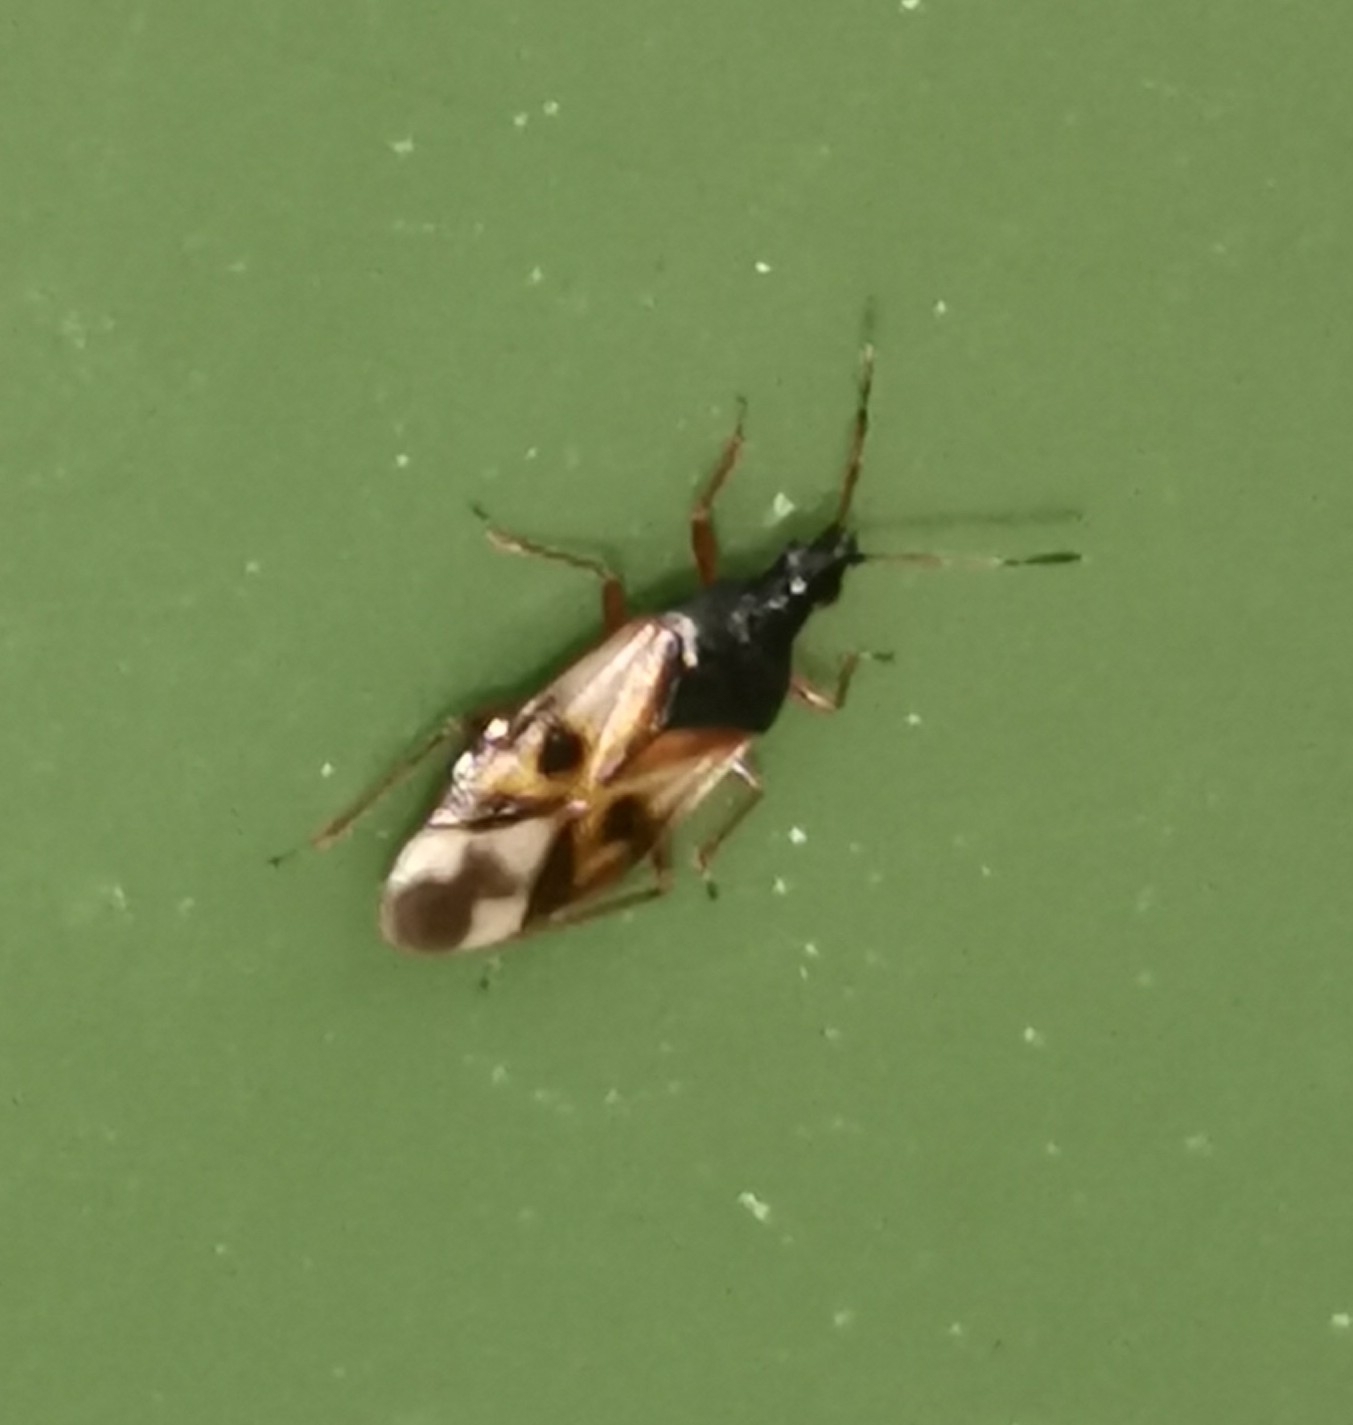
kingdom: Animalia
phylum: Arthropoda
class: Insecta
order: Hemiptera
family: Anthocoridae
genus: Anthocoris
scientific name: Anthocoris nemorum
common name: Minute pirate bug
